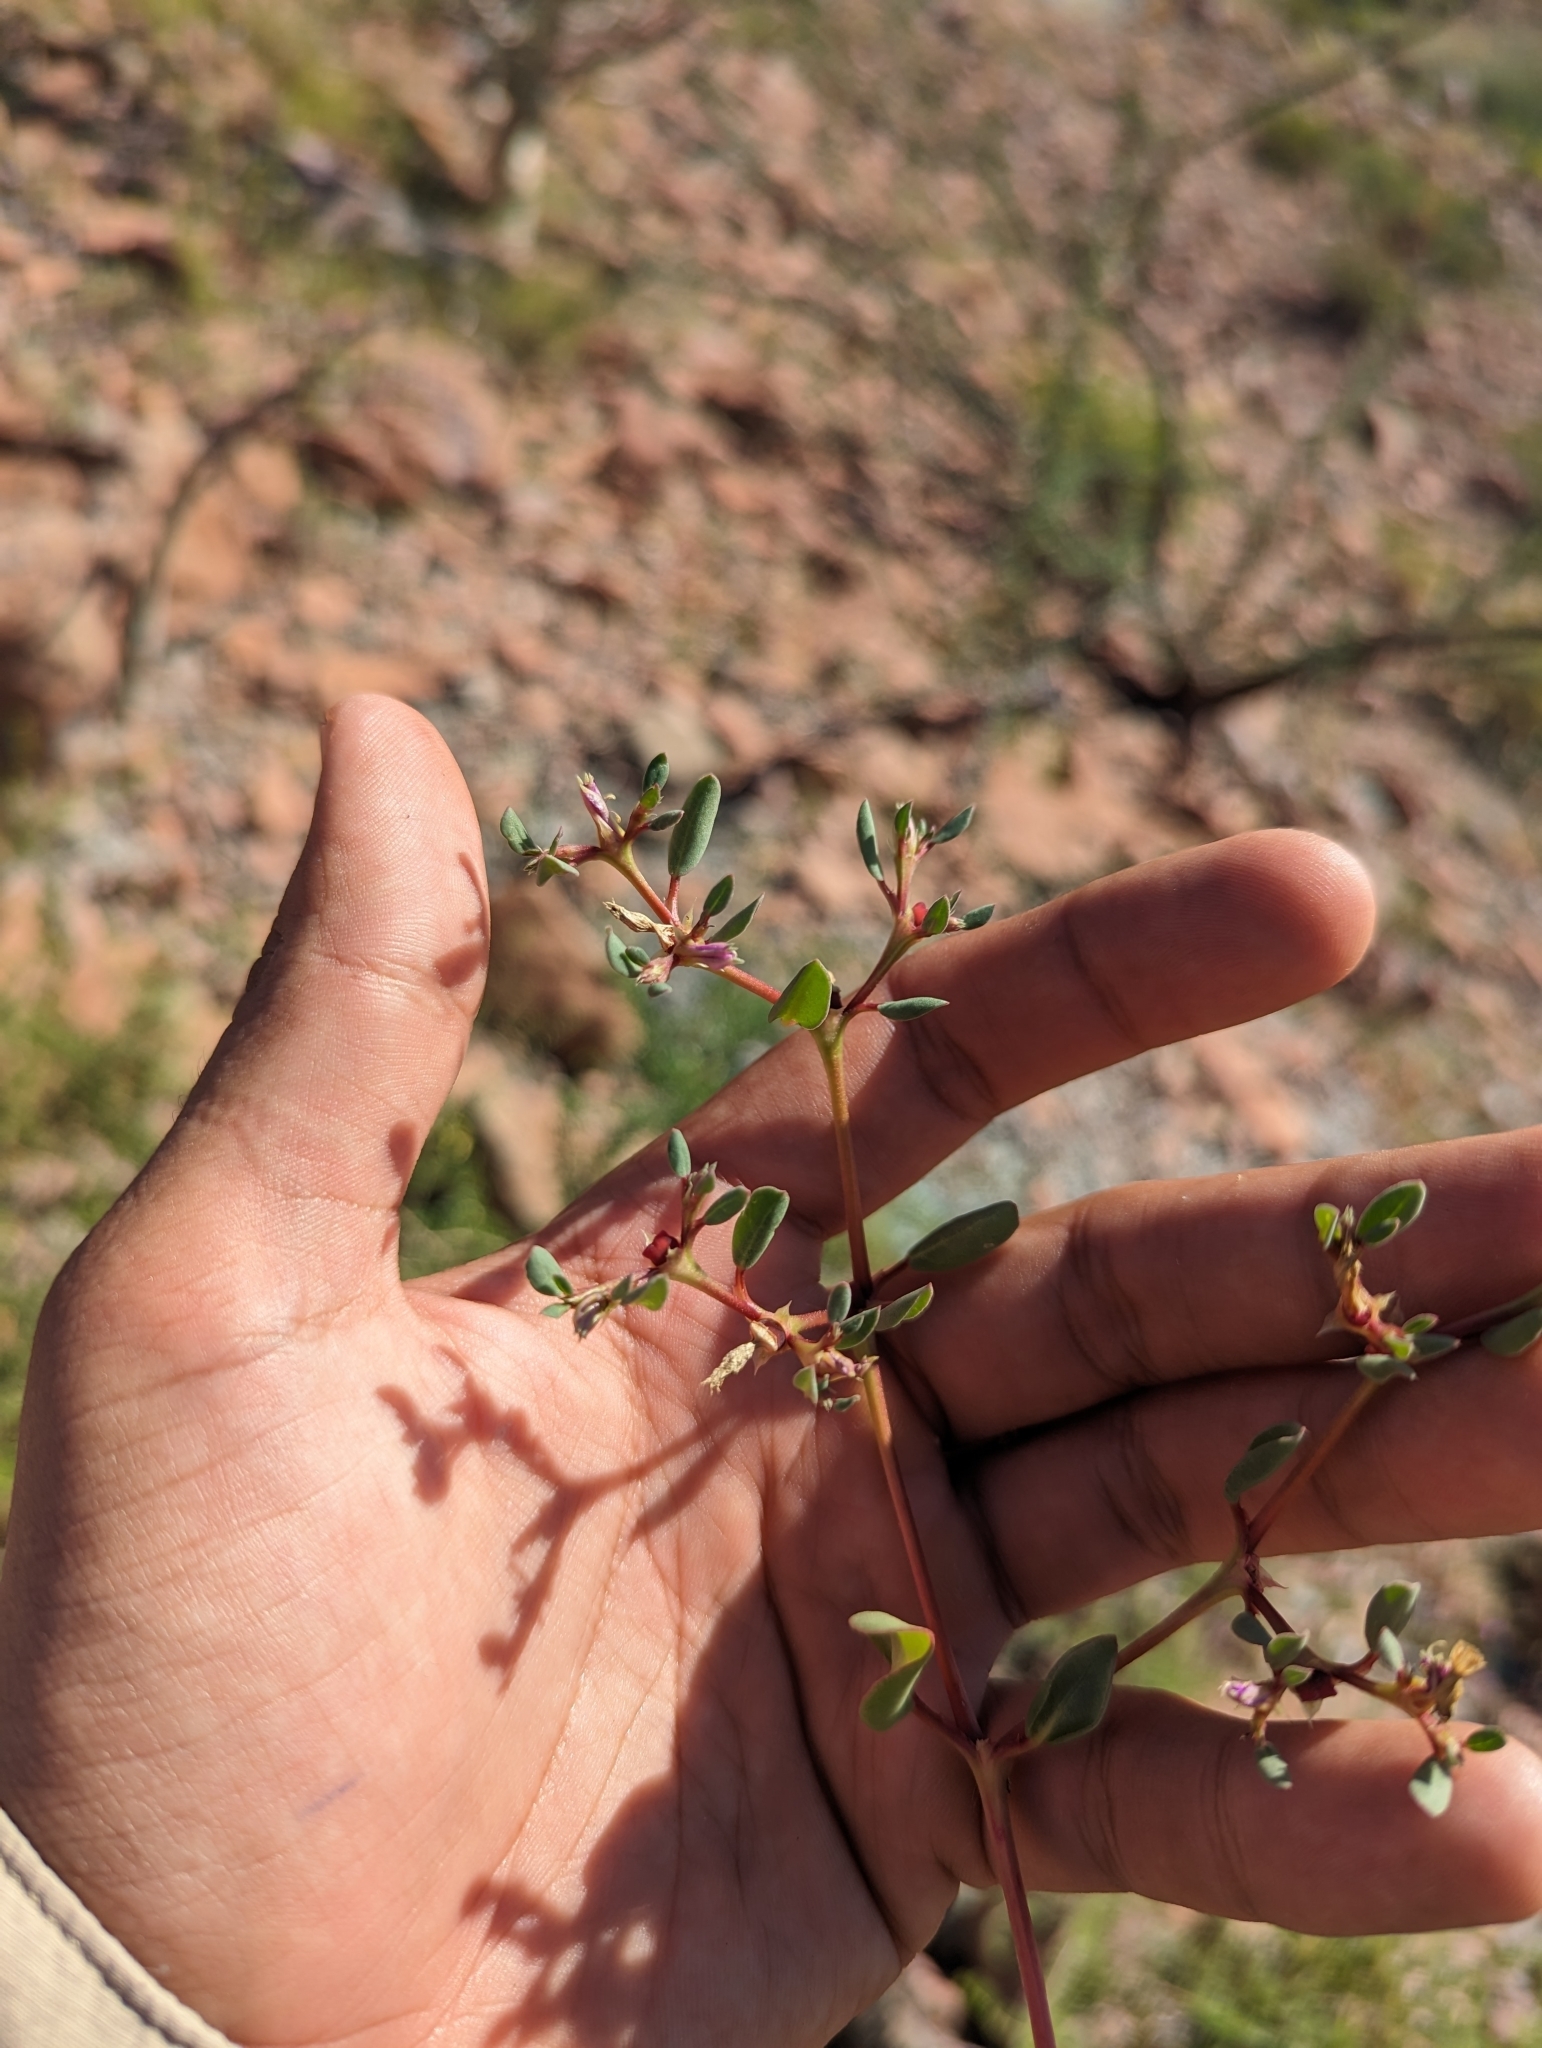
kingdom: Plantae
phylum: Tracheophyta
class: Magnoliopsida
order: Caryophyllales
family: Aizoaceae
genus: Trianthema
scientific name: Trianthema portulacastrum
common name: Desert horsepurslane
